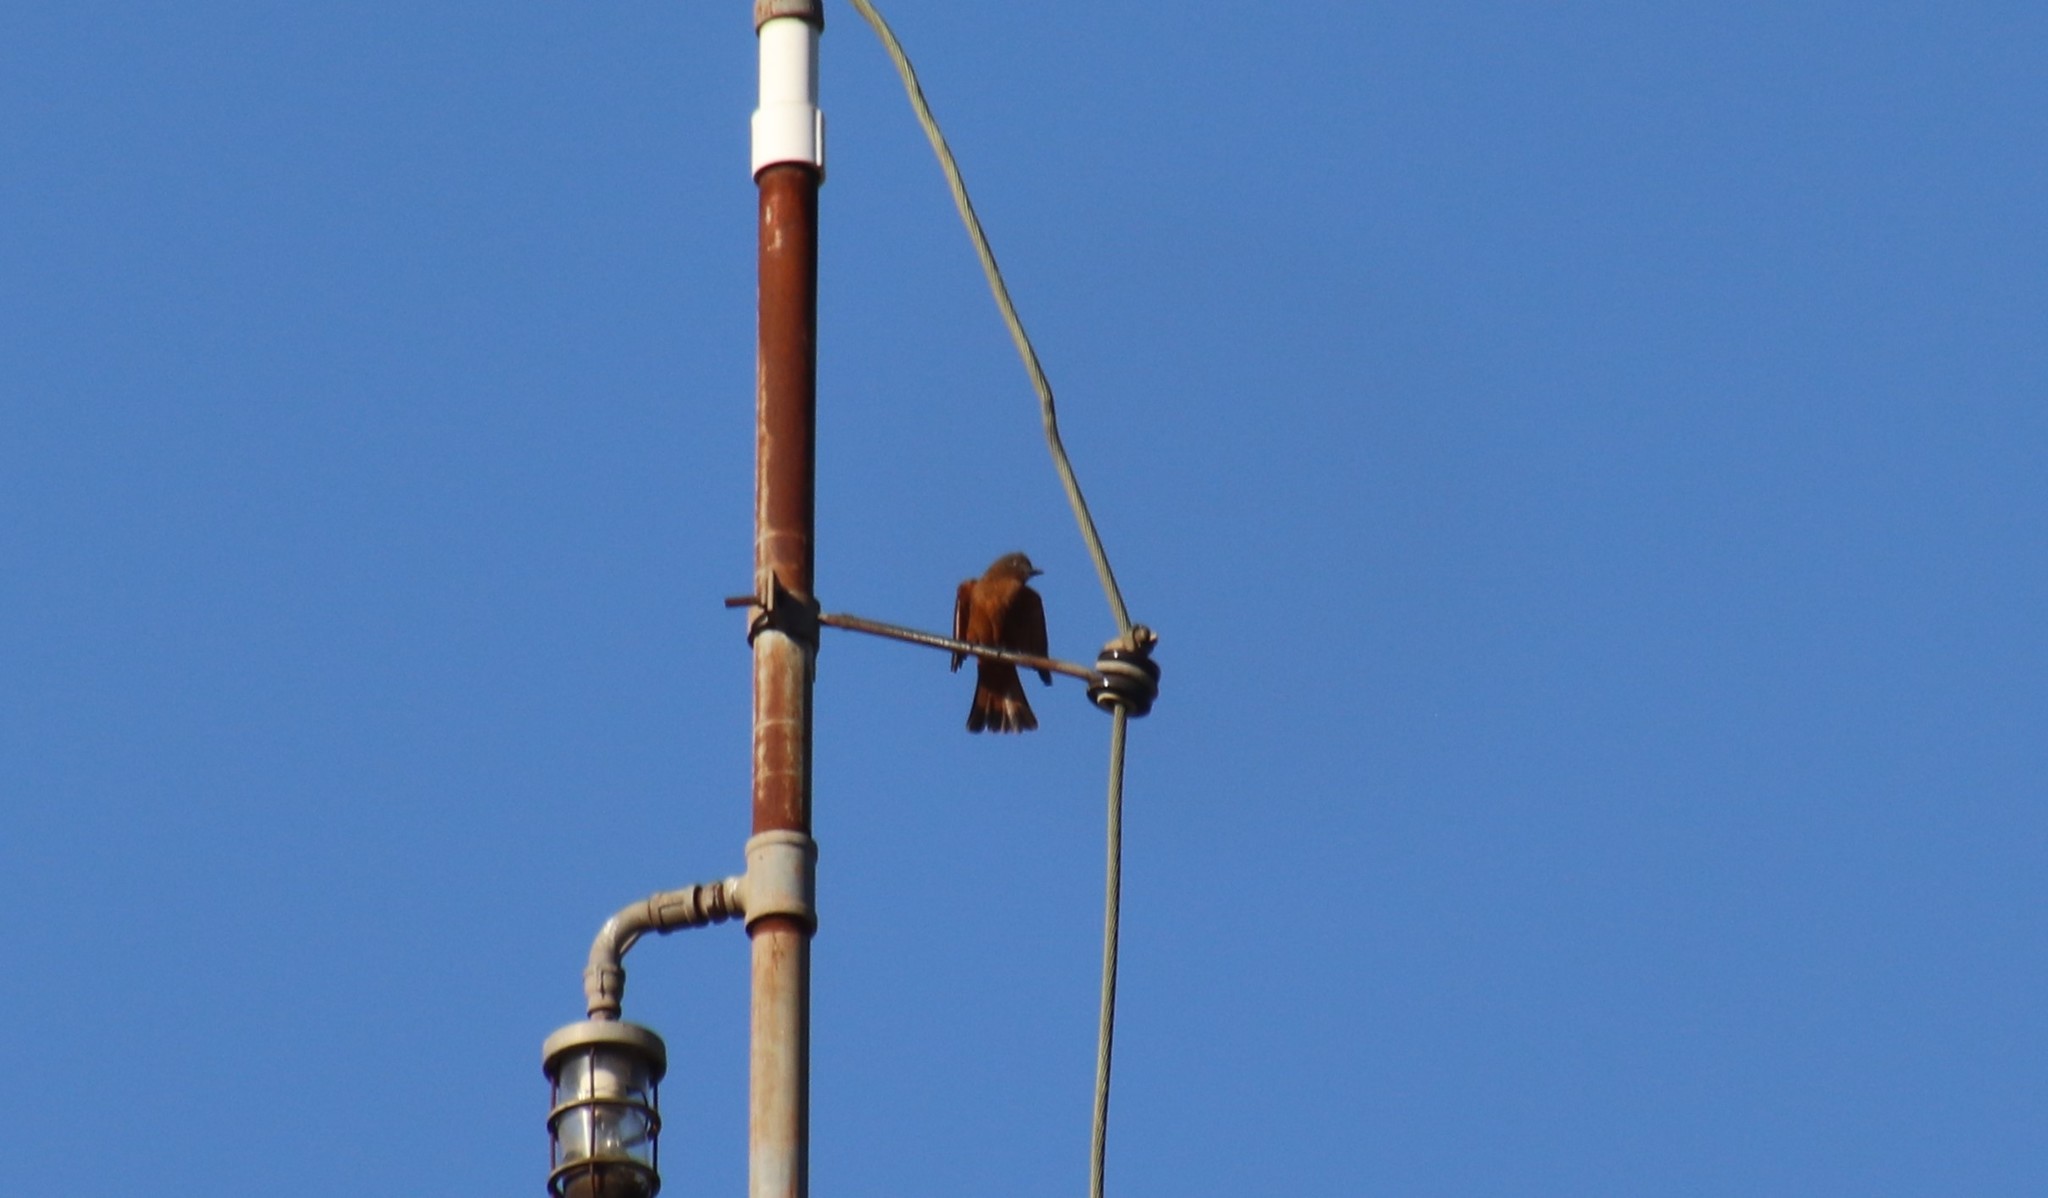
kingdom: Animalia
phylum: Chordata
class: Aves
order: Passeriformes
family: Tyrannidae
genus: Hirundinea
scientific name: Hirundinea ferruginea
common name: Cliff flycatcher
